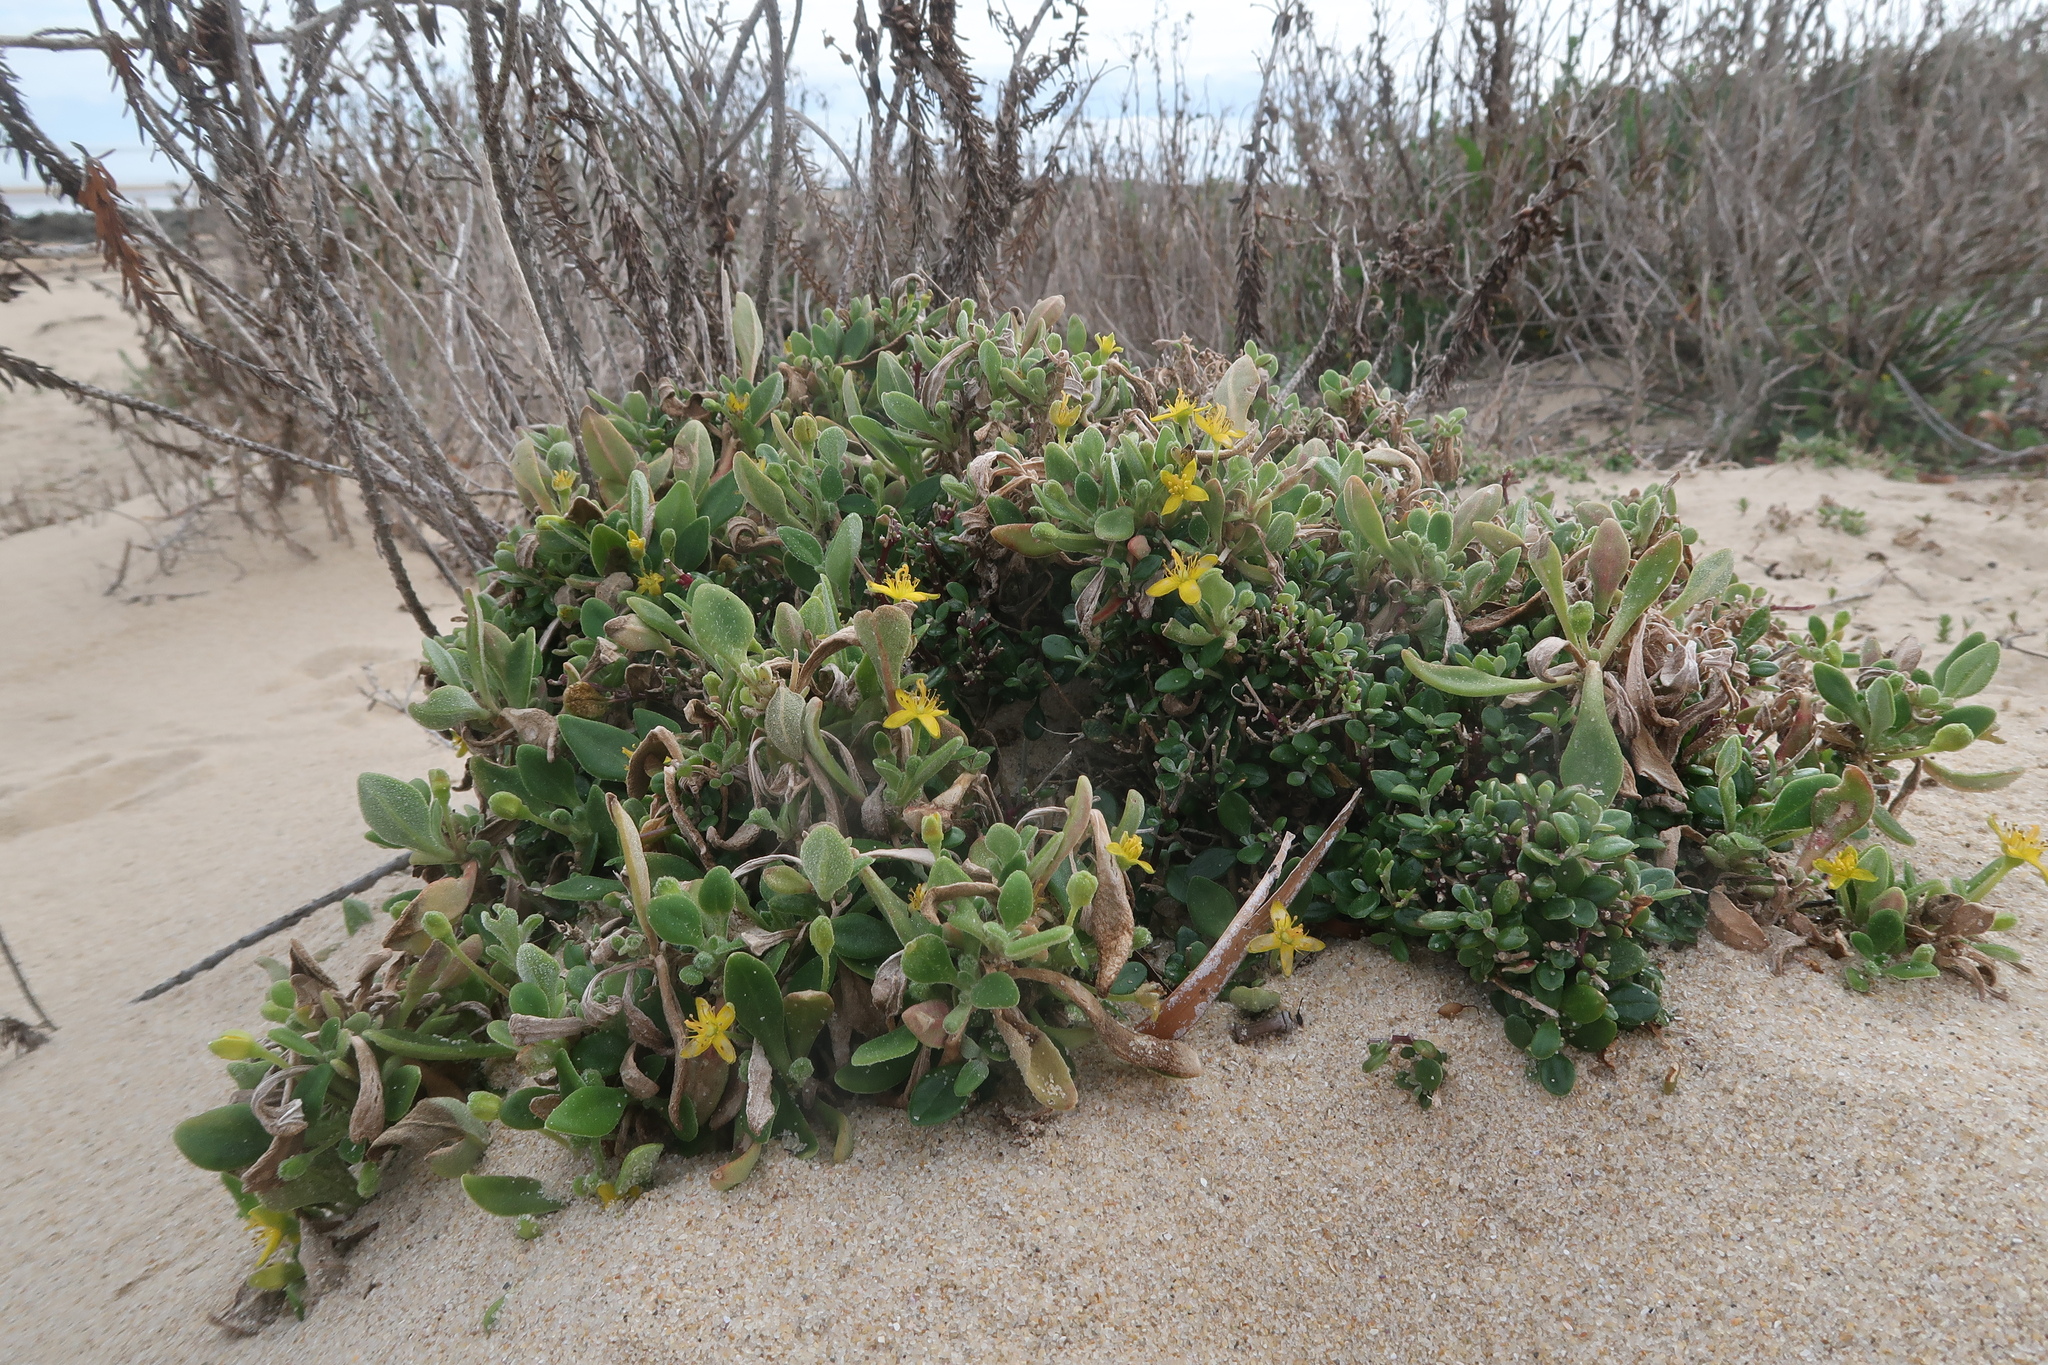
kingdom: Plantae
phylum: Tracheophyta
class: Magnoliopsida
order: Caryophyllales
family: Aizoaceae
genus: Tetragonia
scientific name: Tetragonia implexicoma
